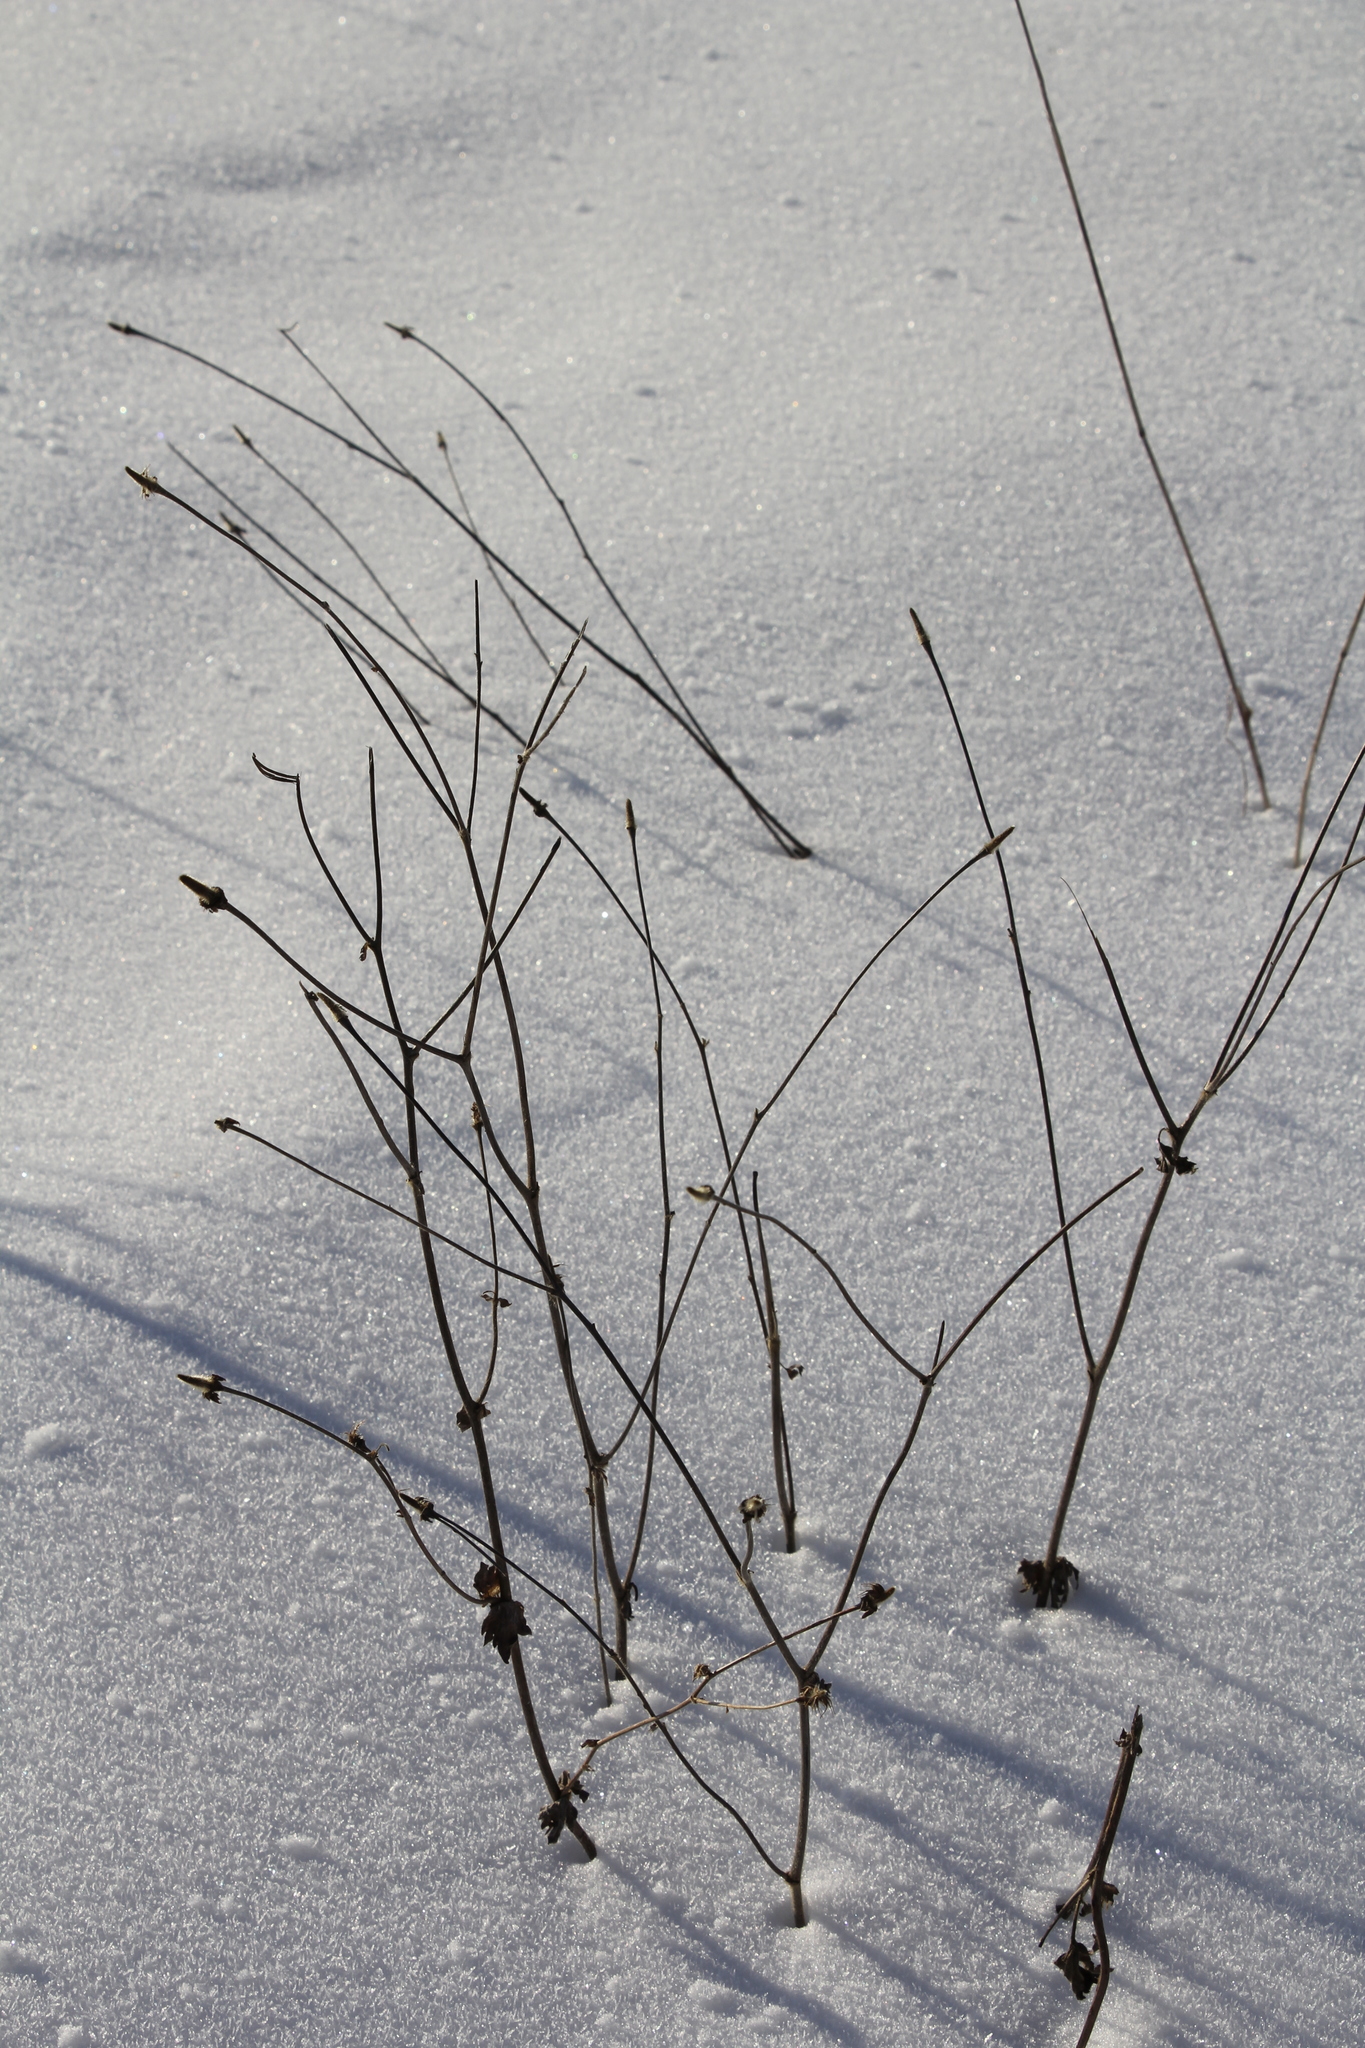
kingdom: Plantae
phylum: Tracheophyta
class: Magnoliopsida
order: Rosales
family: Rosaceae
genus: Geum
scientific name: Geum aleppicum
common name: Yellow avens
